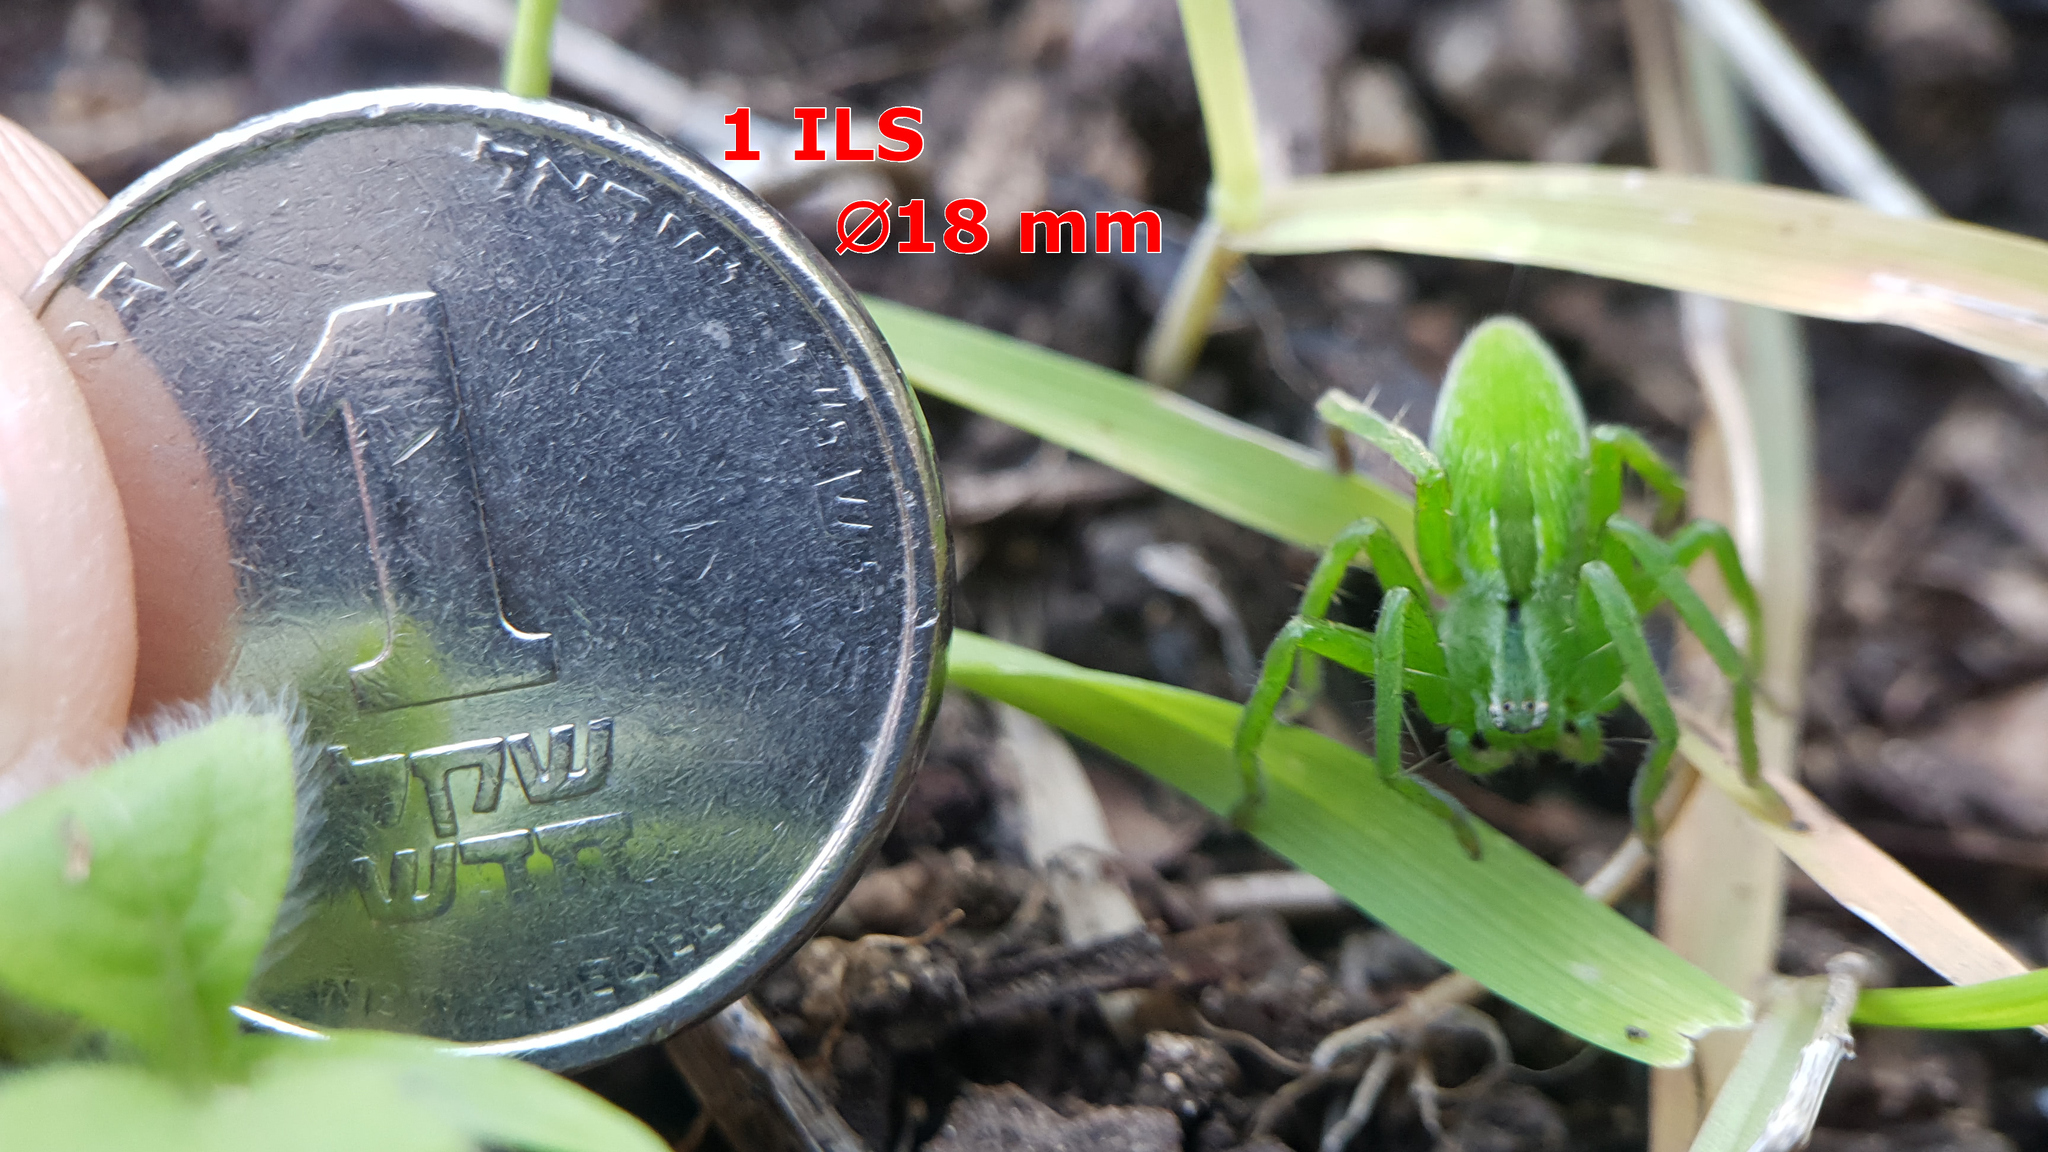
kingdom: Animalia
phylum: Arthropoda
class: Arachnida
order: Araneae
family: Sparassidae
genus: Micrommata
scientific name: Micrommata ligurina
